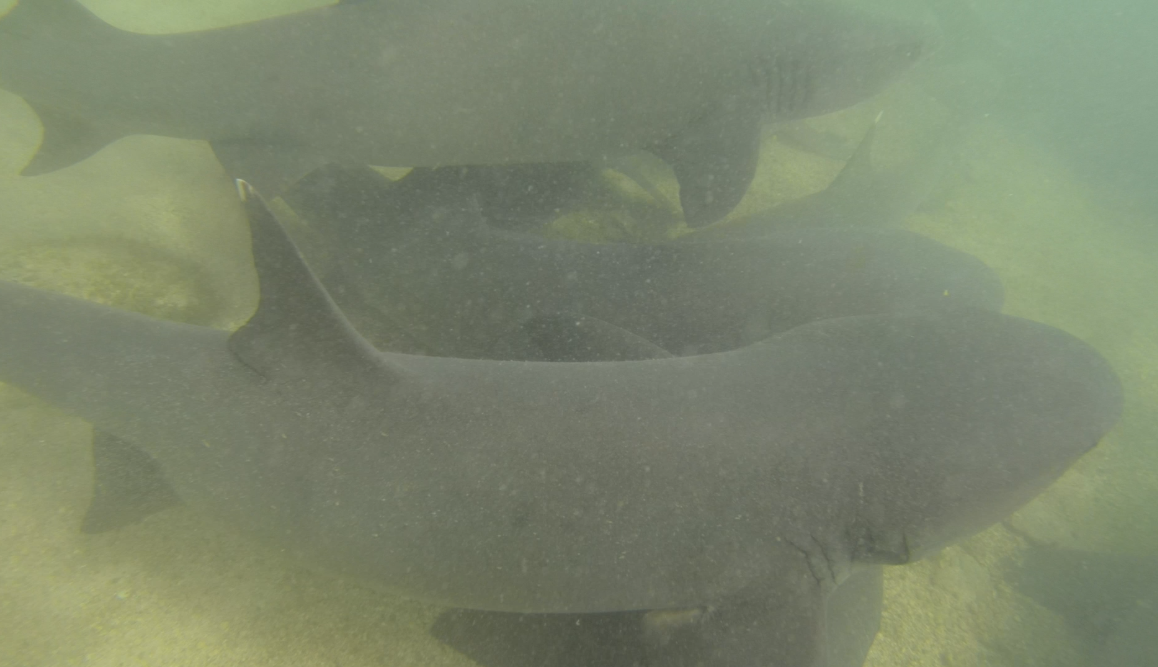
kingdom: Animalia
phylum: Chordata
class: Elasmobranchii
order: Carcharhiniformes
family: Carcharhinidae
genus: Triaenodon
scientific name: Triaenodon obesus
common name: Whitetip reef shark
